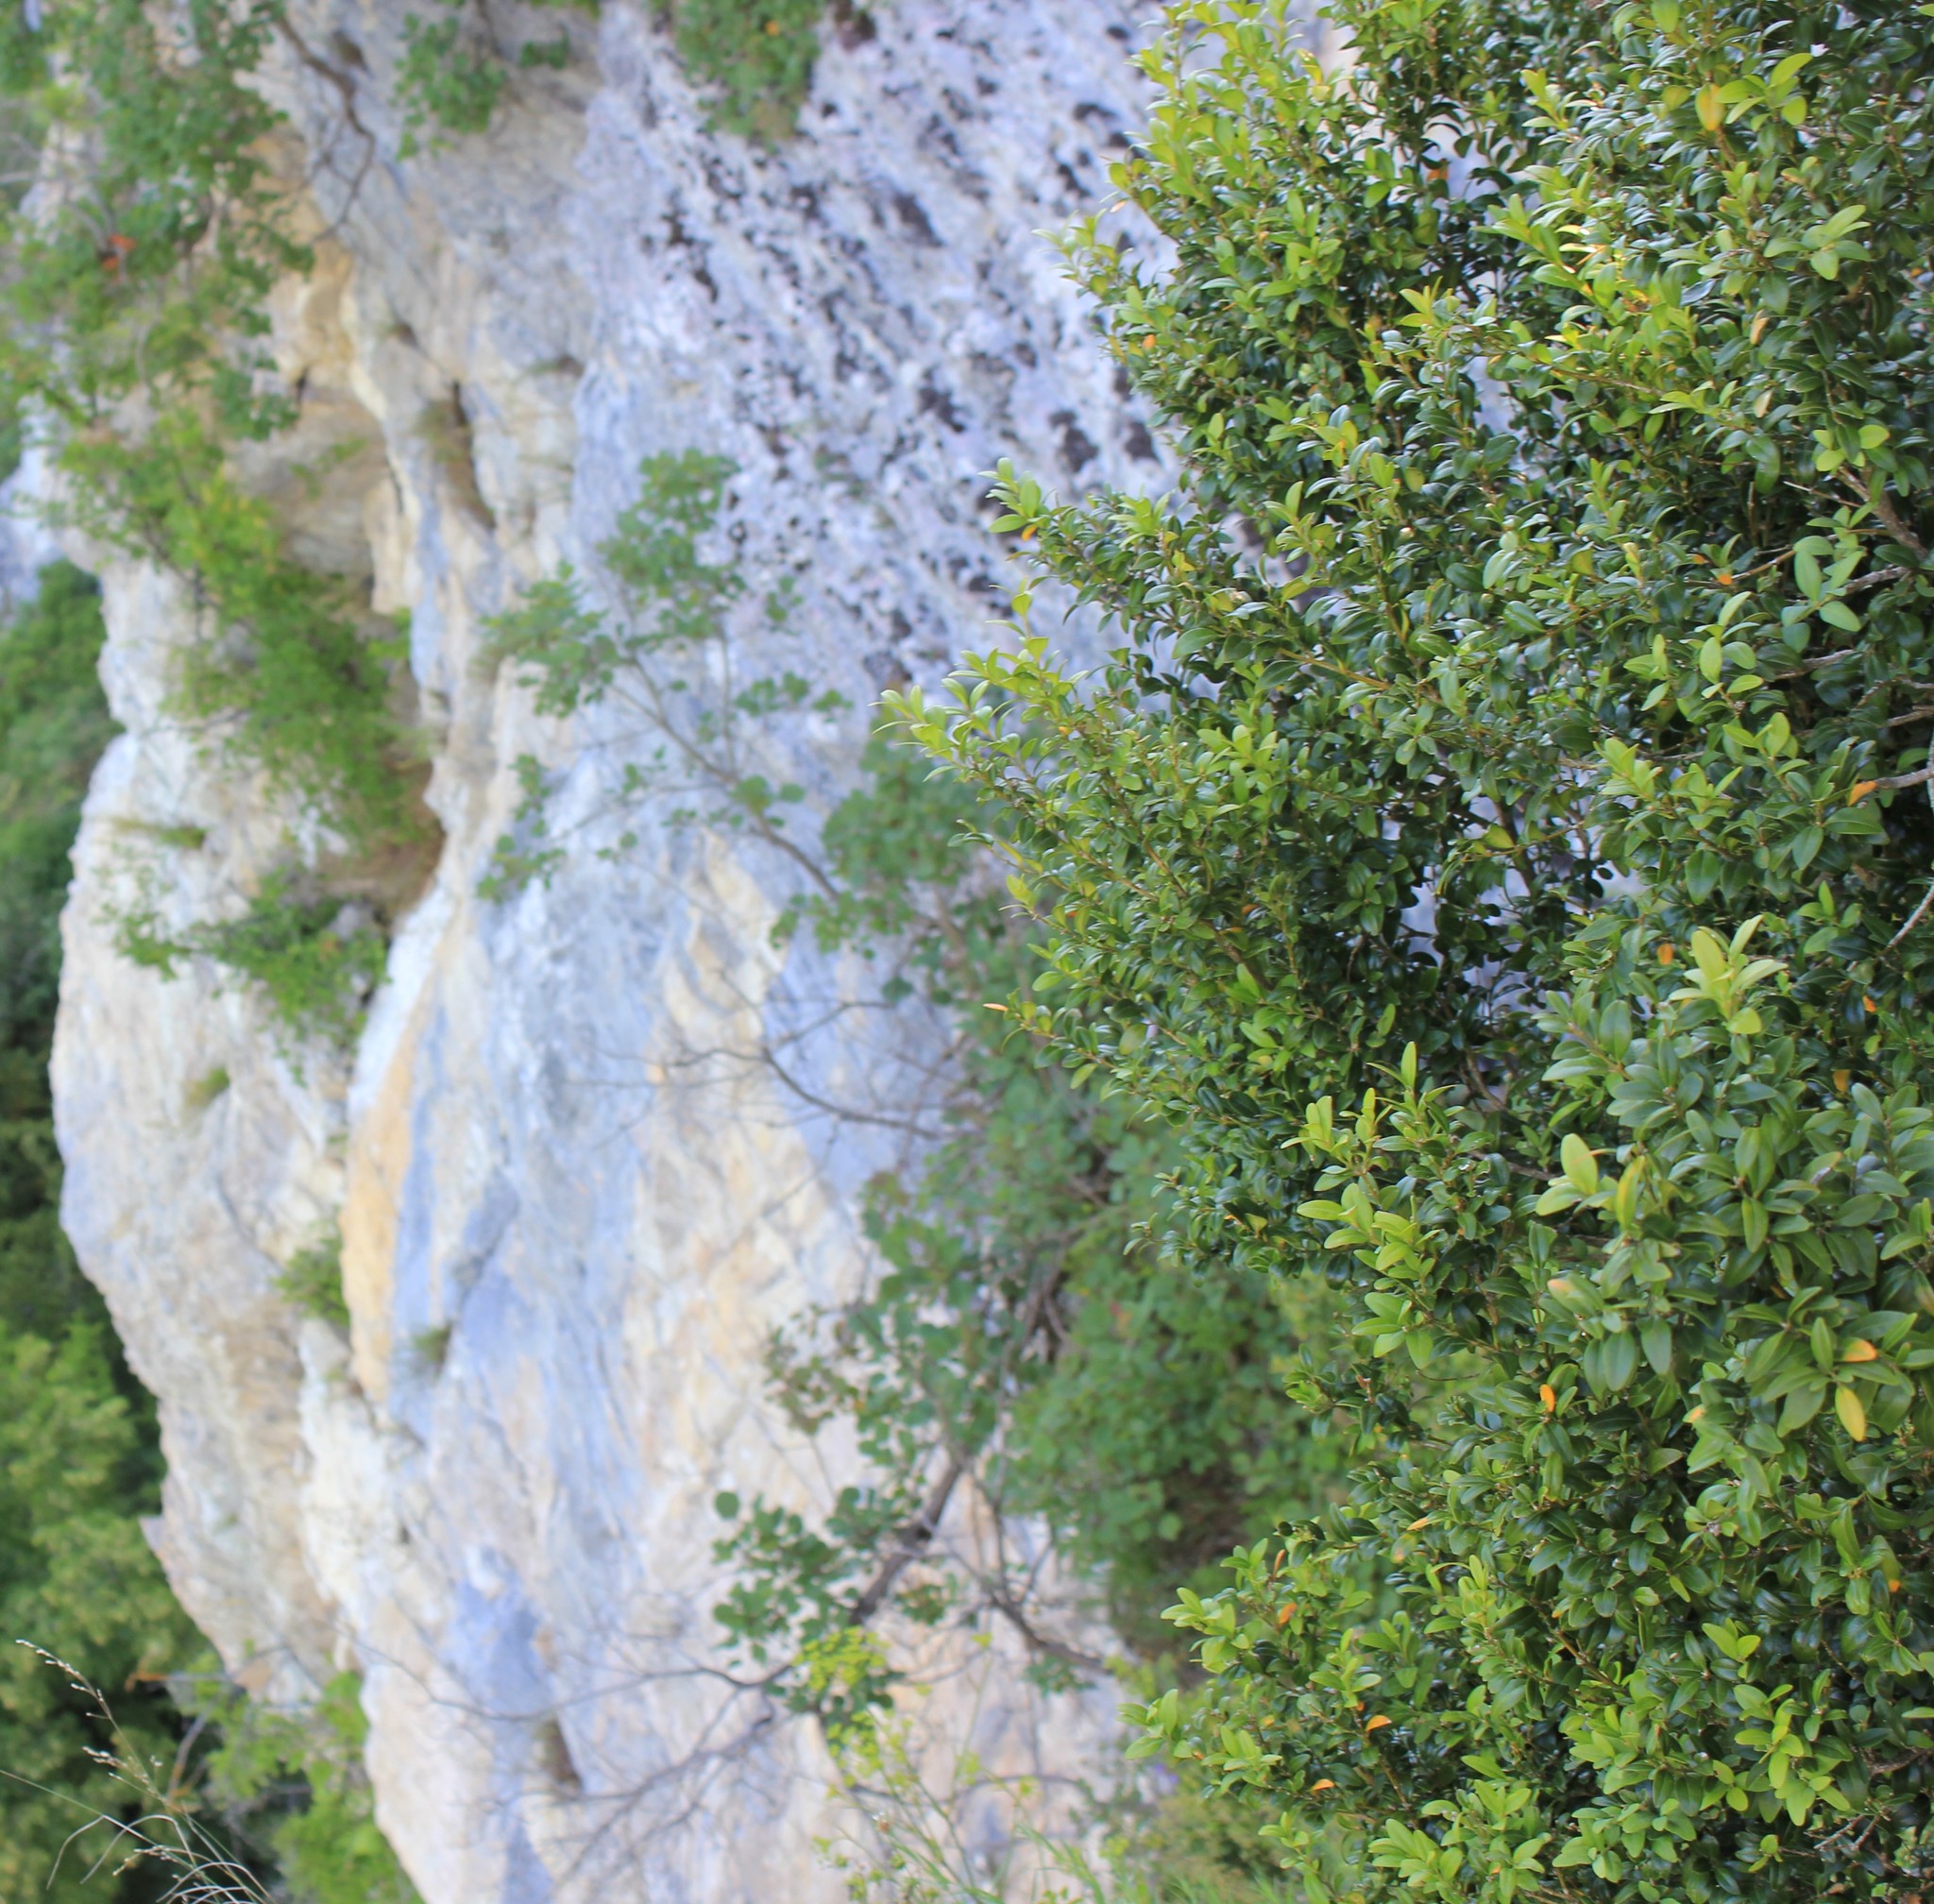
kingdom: Plantae
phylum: Tracheophyta
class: Magnoliopsida
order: Buxales
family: Buxaceae
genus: Buxus
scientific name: Buxus sempervirens
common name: Box
